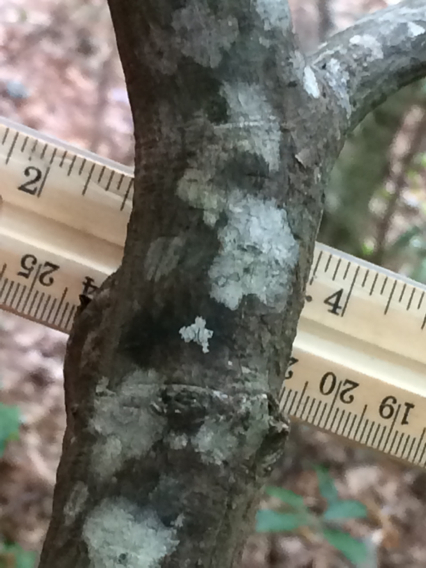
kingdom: Plantae
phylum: Tracheophyta
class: Magnoliopsida
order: Ericales
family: Symplocaceae
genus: Symplocos
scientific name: Symplocos tinctoria
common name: Horse-sugar
